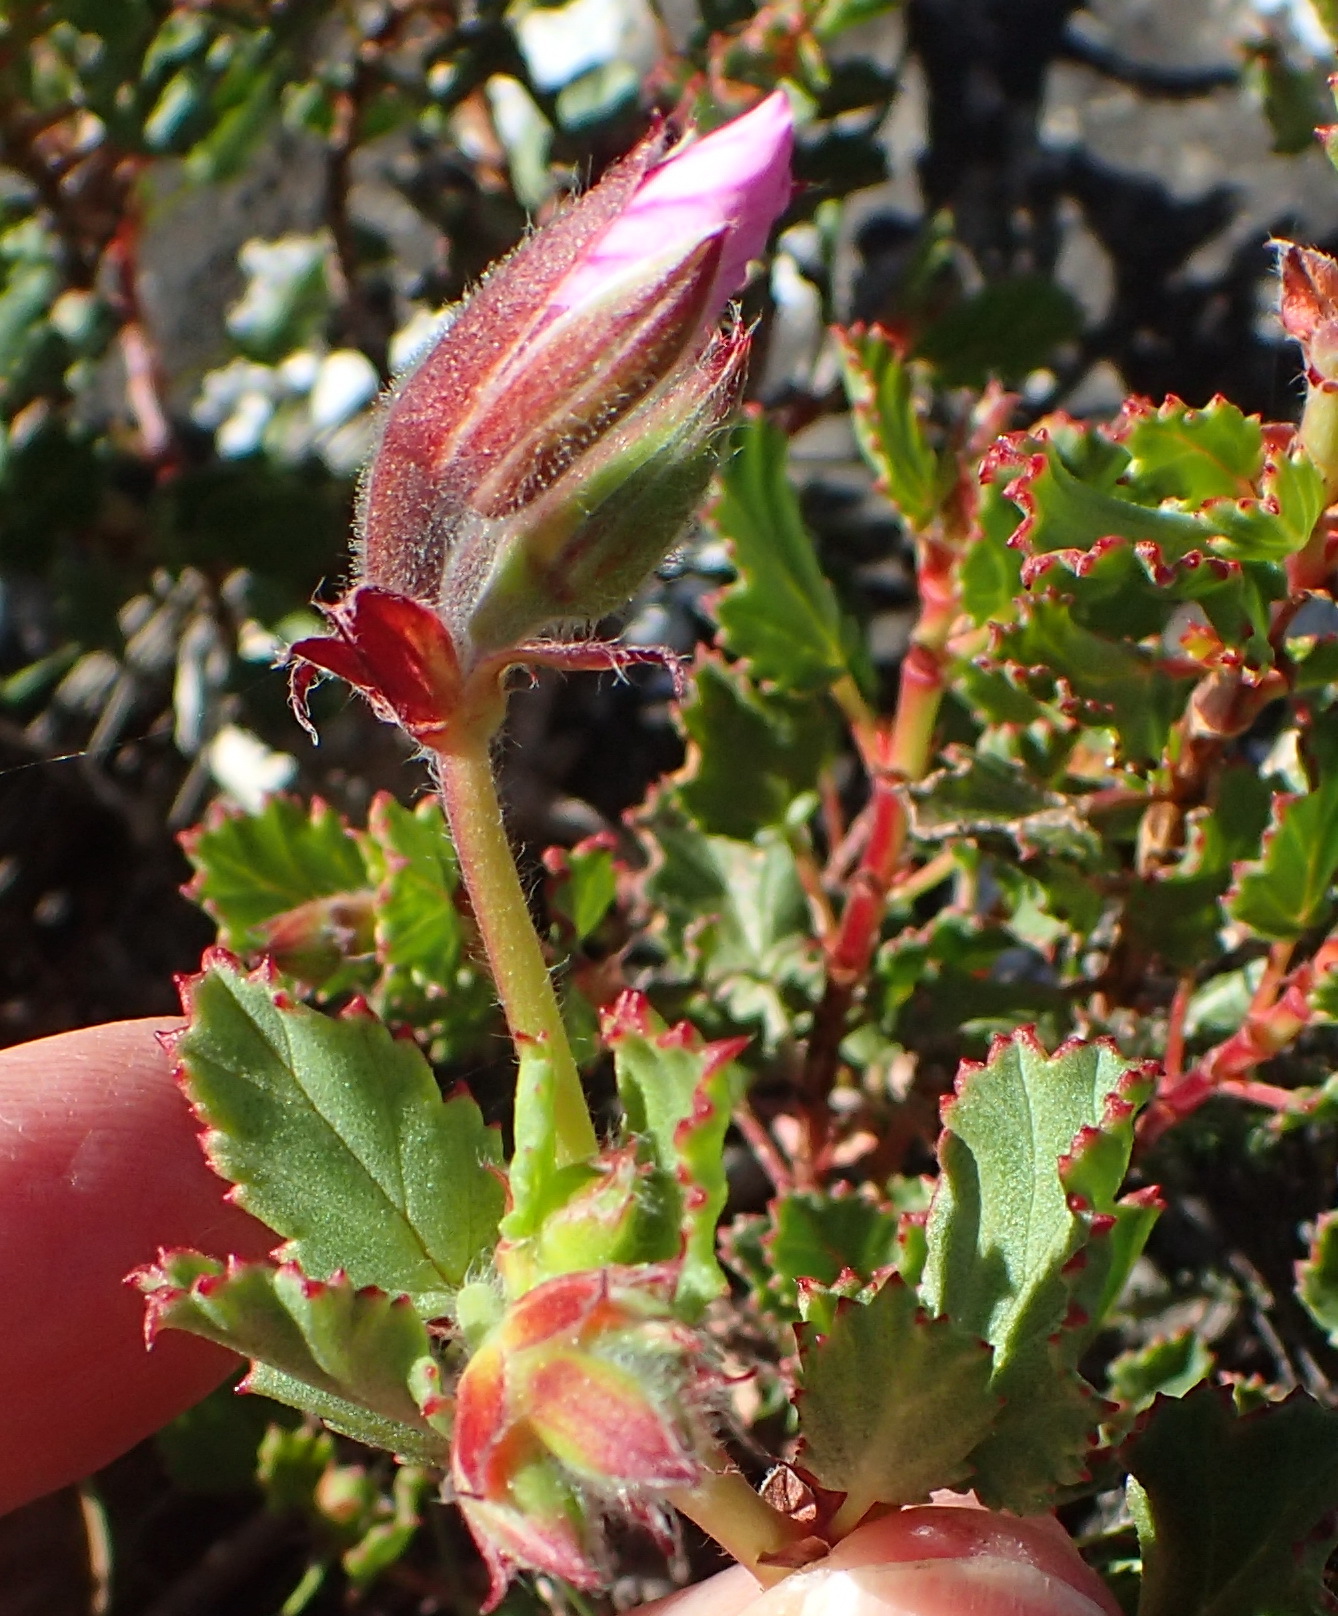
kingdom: Plantae
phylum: Tracheophyta
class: Magnoliopsida
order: Geraniales
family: Geraniaceae
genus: Pelargonium
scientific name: Pelargonium betulinum
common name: Birch-leaf pelargonium
